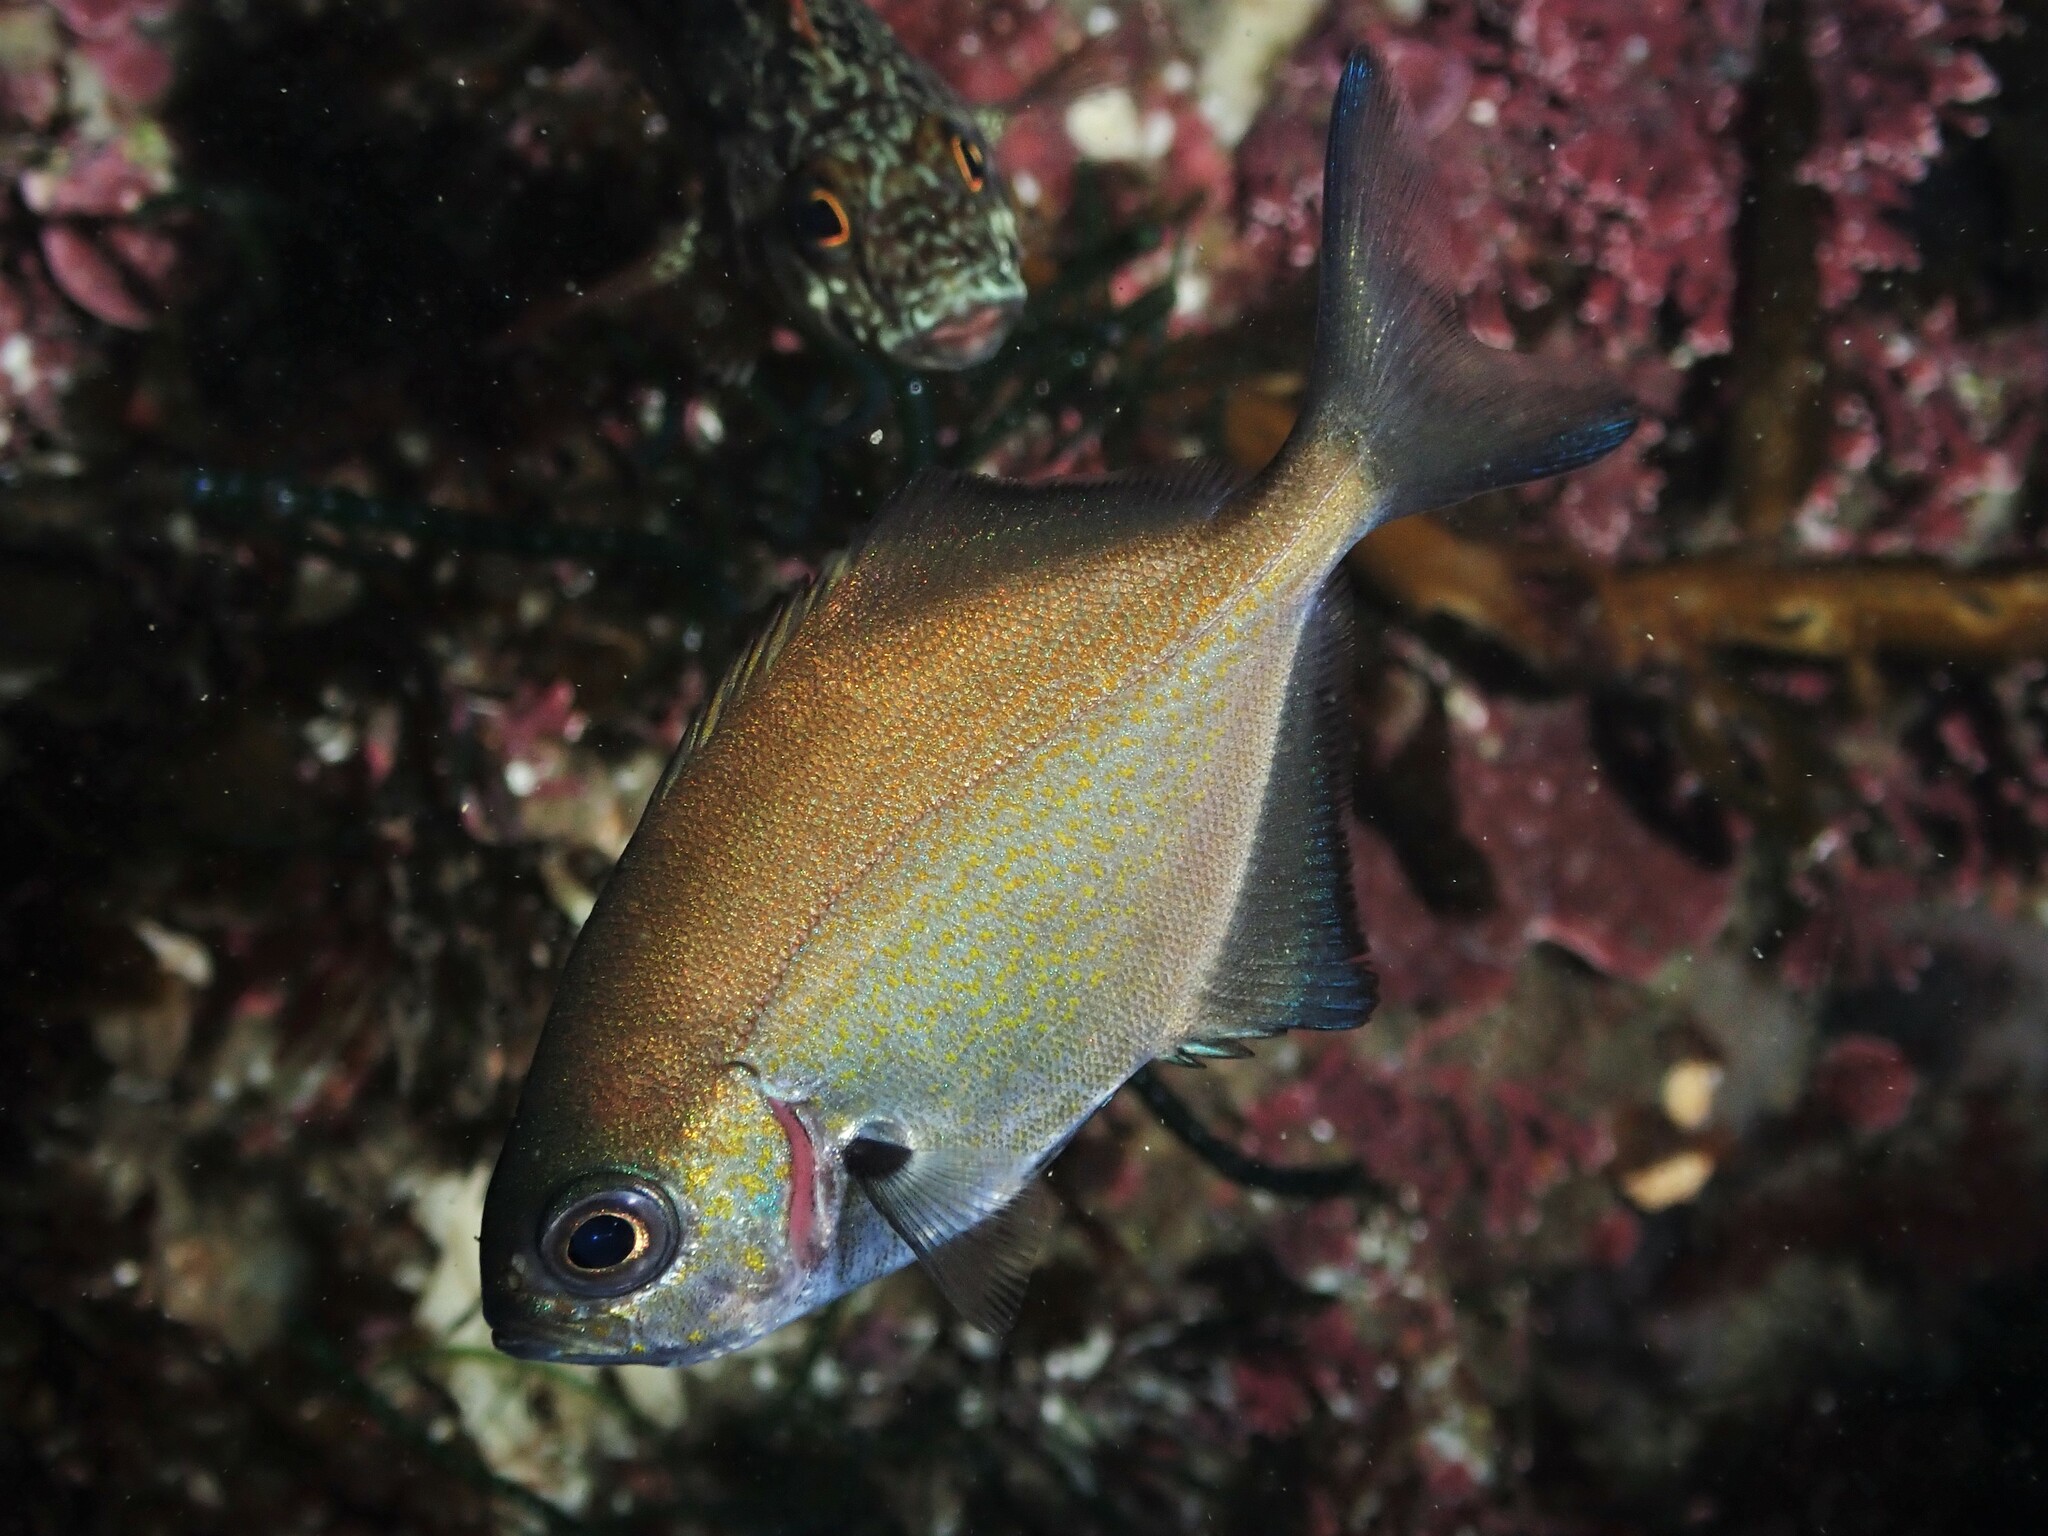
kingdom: Animalia
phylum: Chordata
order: Perciformes
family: Kyphosidae
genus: Scorpis
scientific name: Scorpis lineolata
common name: Sweep
